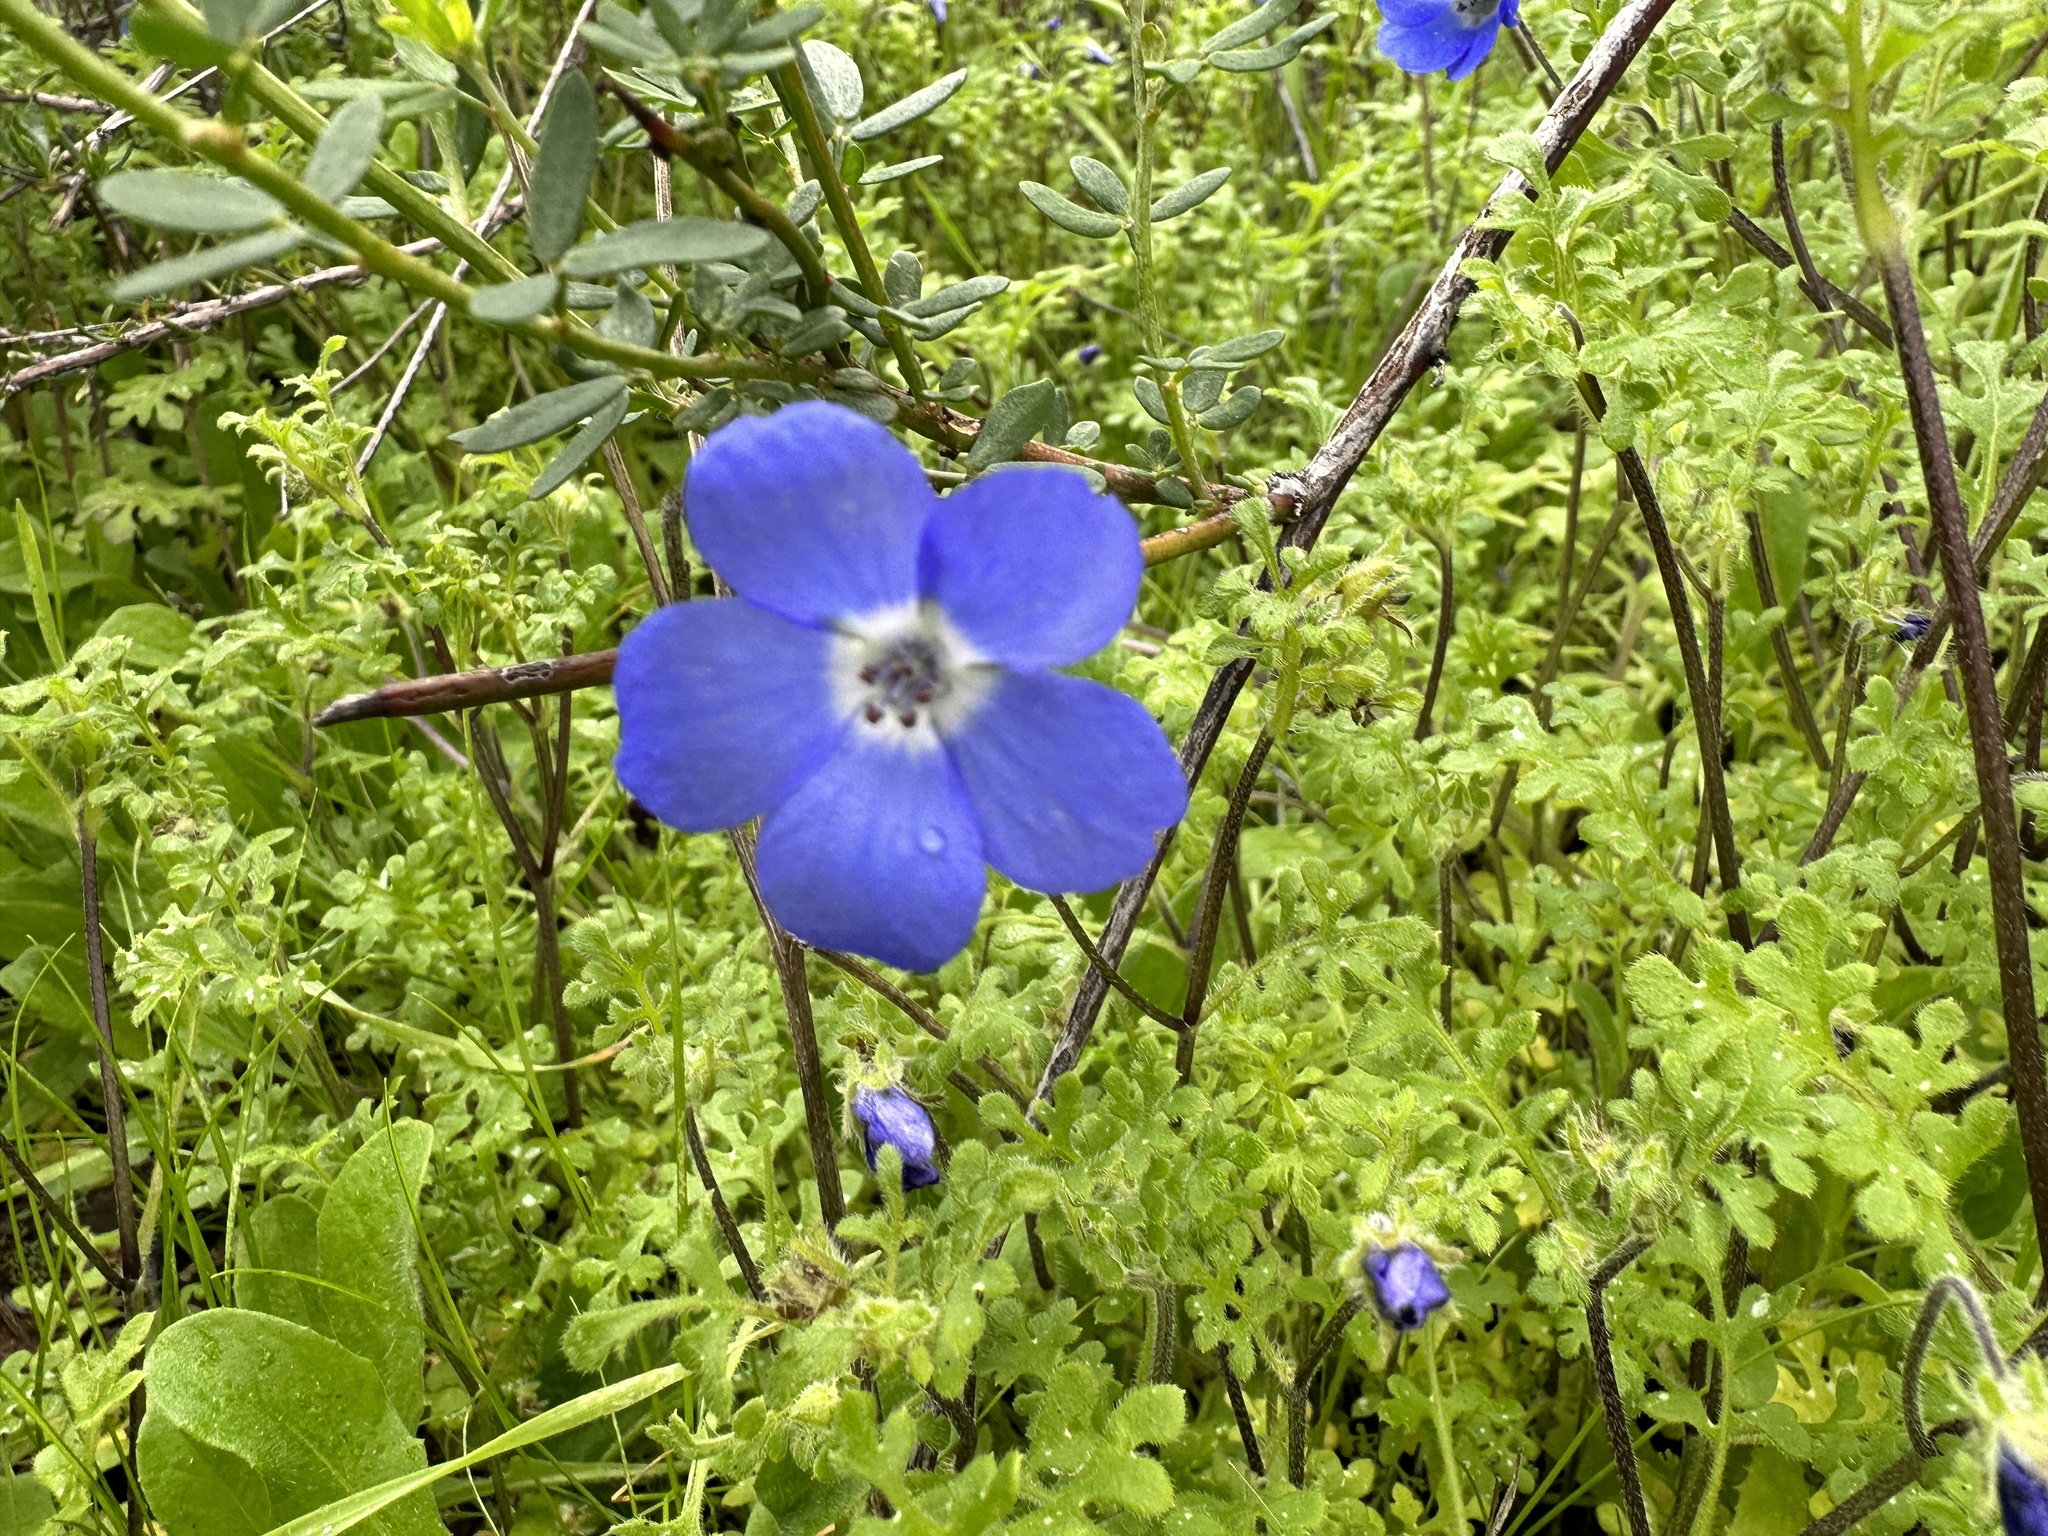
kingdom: Plantae
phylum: Tracheophyta
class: Magnoliopsida
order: Boraginales
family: Hydrophyllaceae
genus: Nemophila
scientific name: Nemophila menziesii
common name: Baby's-blue-eyes
